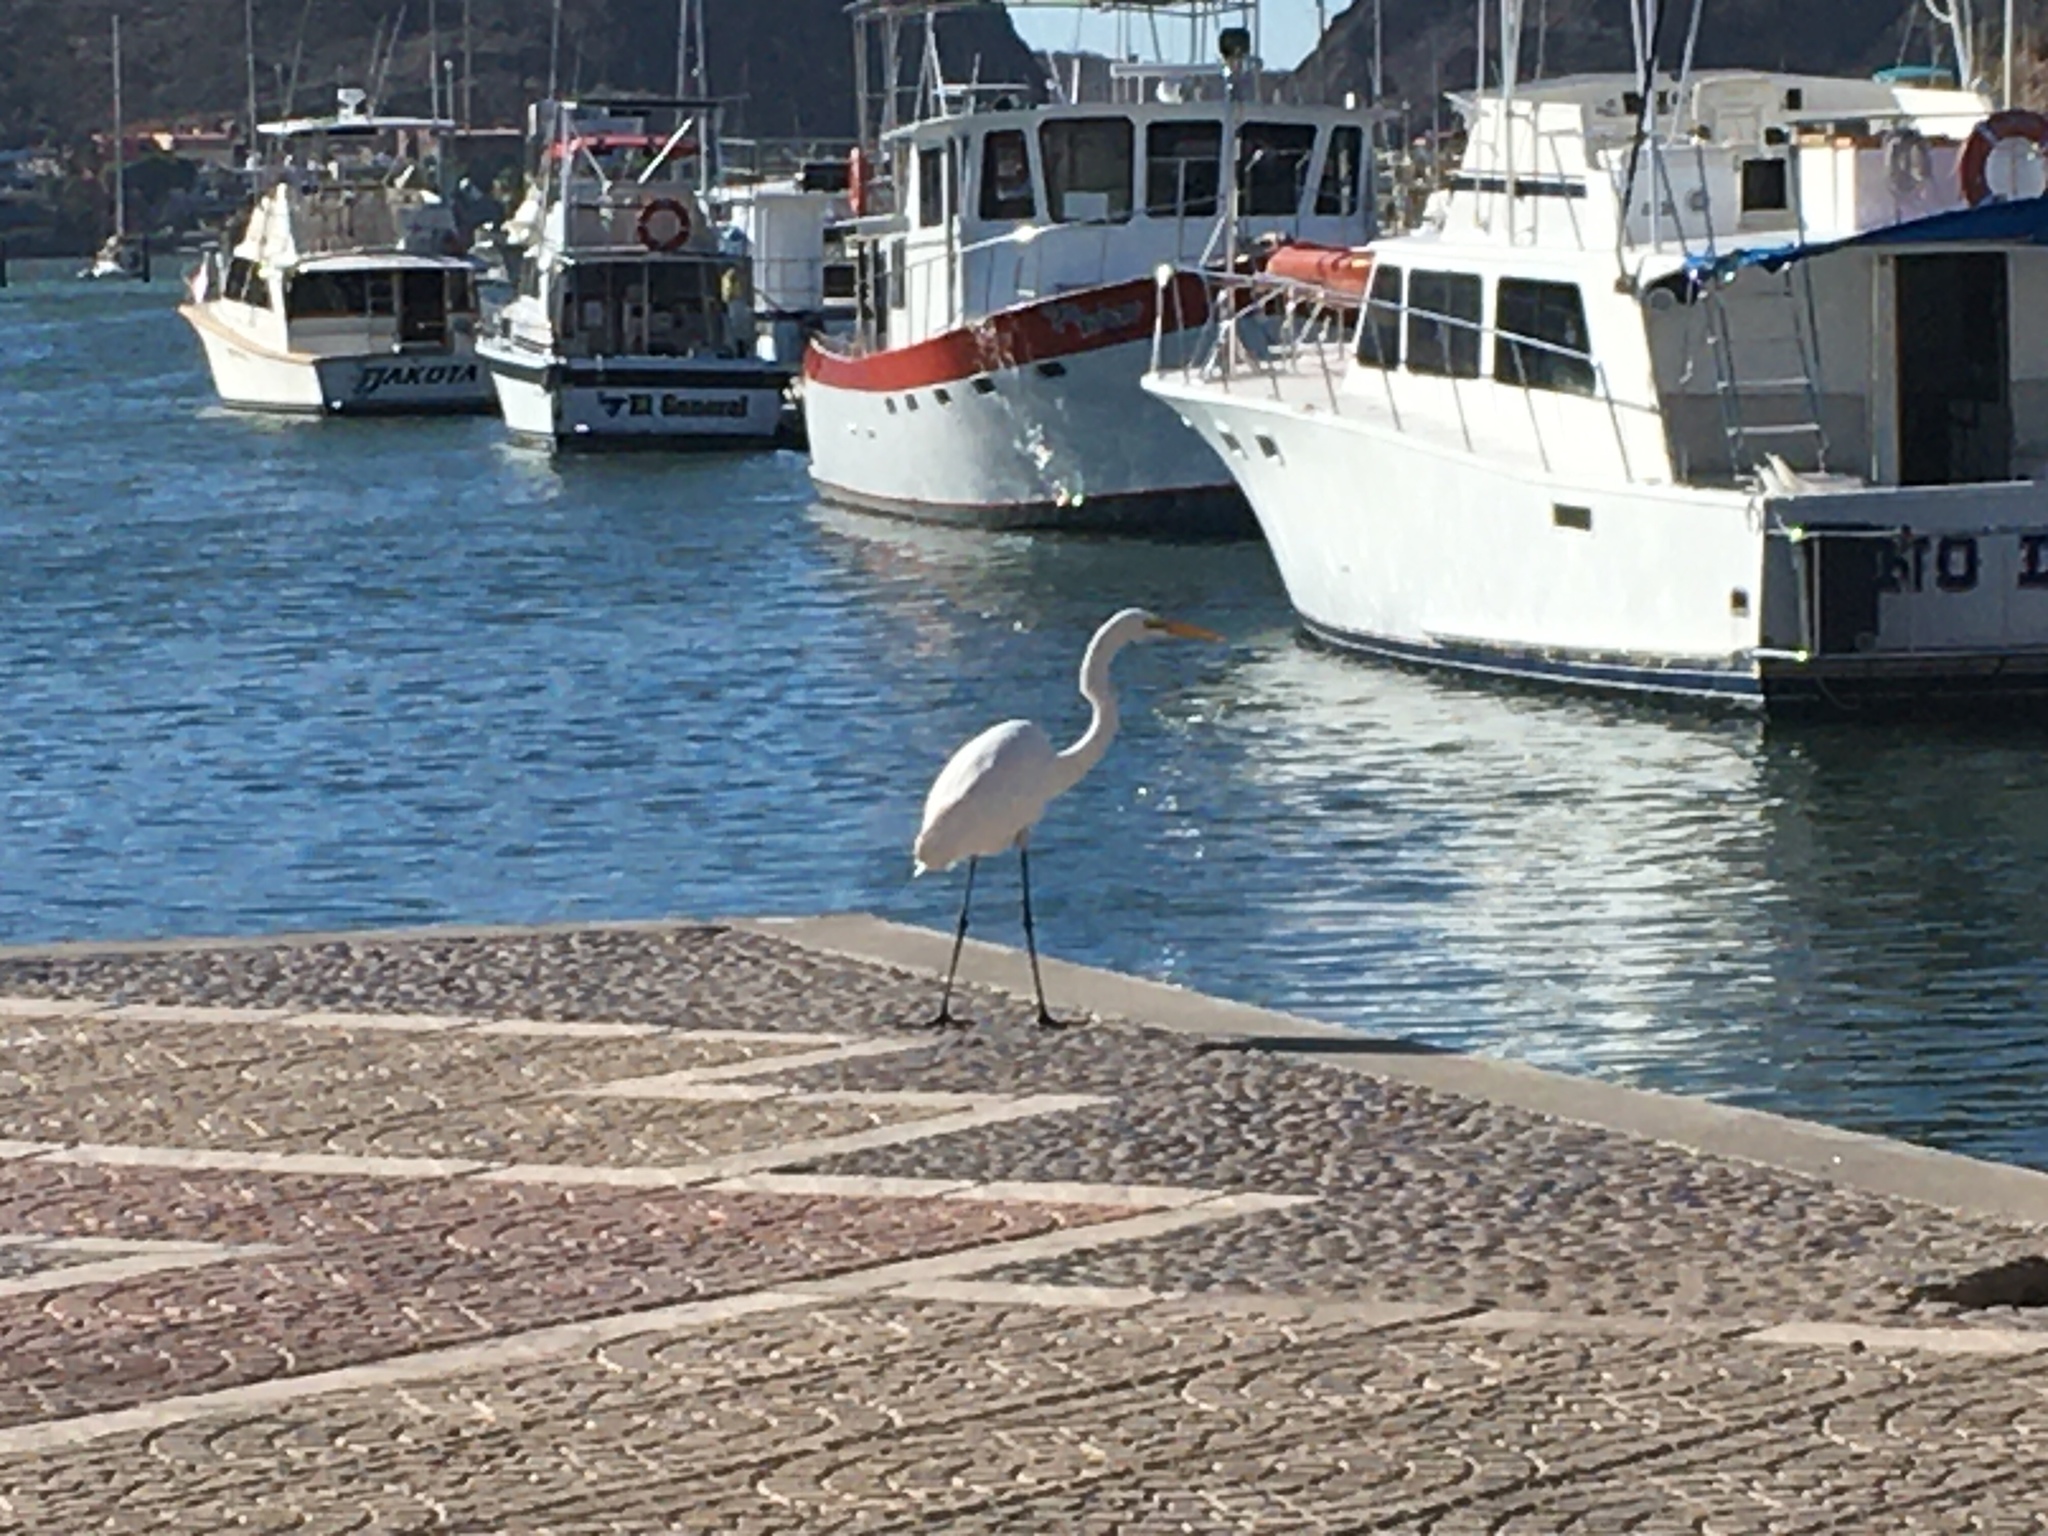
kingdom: Animalia
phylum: Chordata
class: Aves
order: Pelecaniformes
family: Ardeidae
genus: Ardea
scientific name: Ardea alba
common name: Great egret
